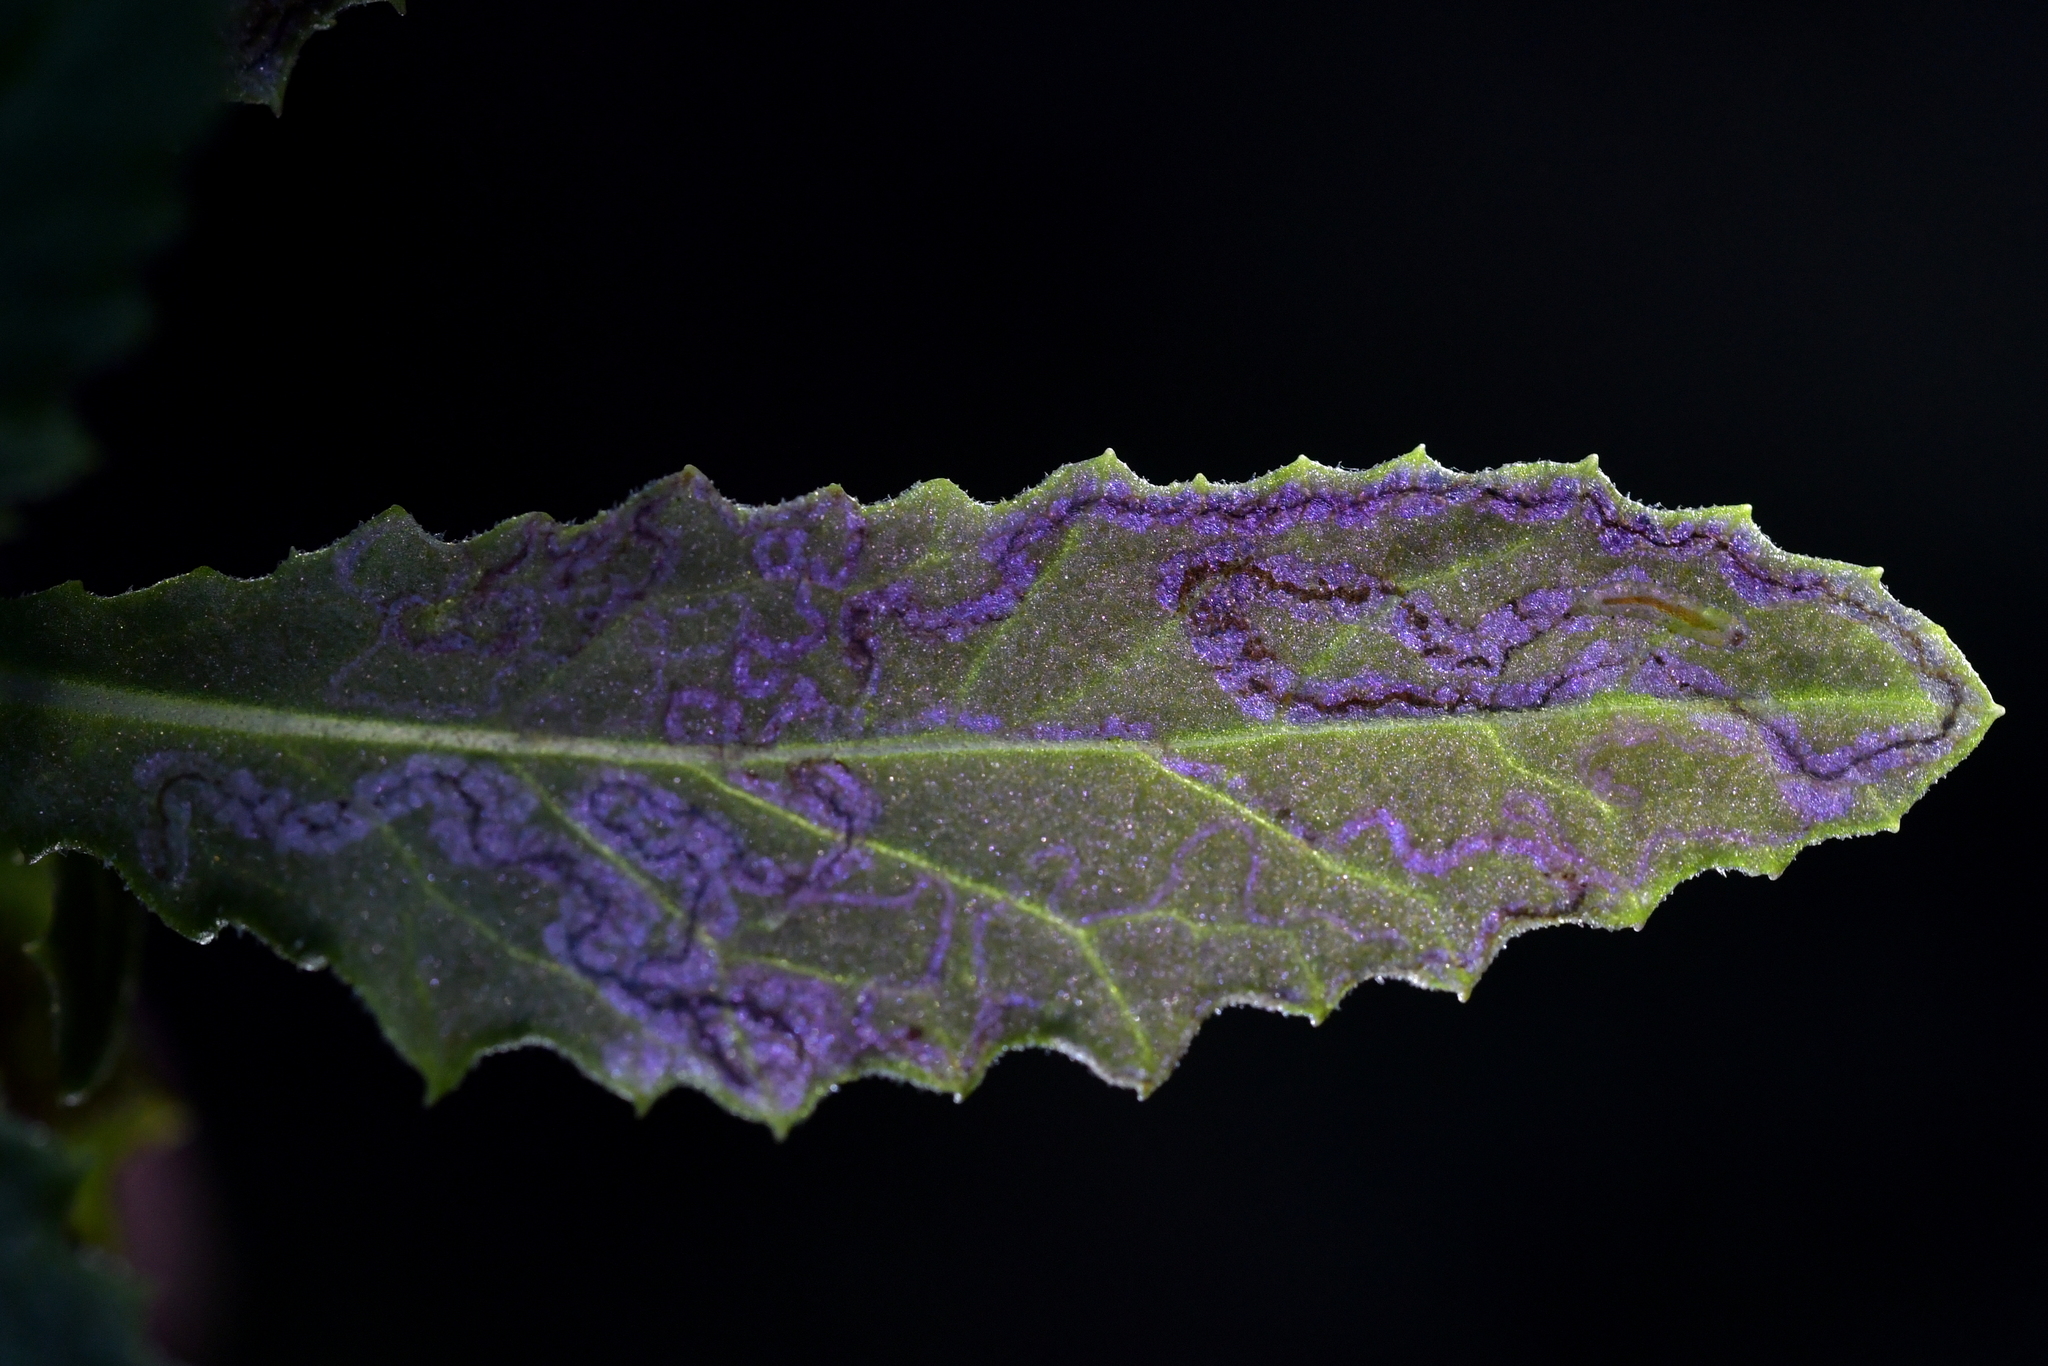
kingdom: Animalia
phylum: Arthropoda
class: Insecta
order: Lepidoptera
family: Nepticulidae
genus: Stigmella
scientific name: Stigmella ogygia
